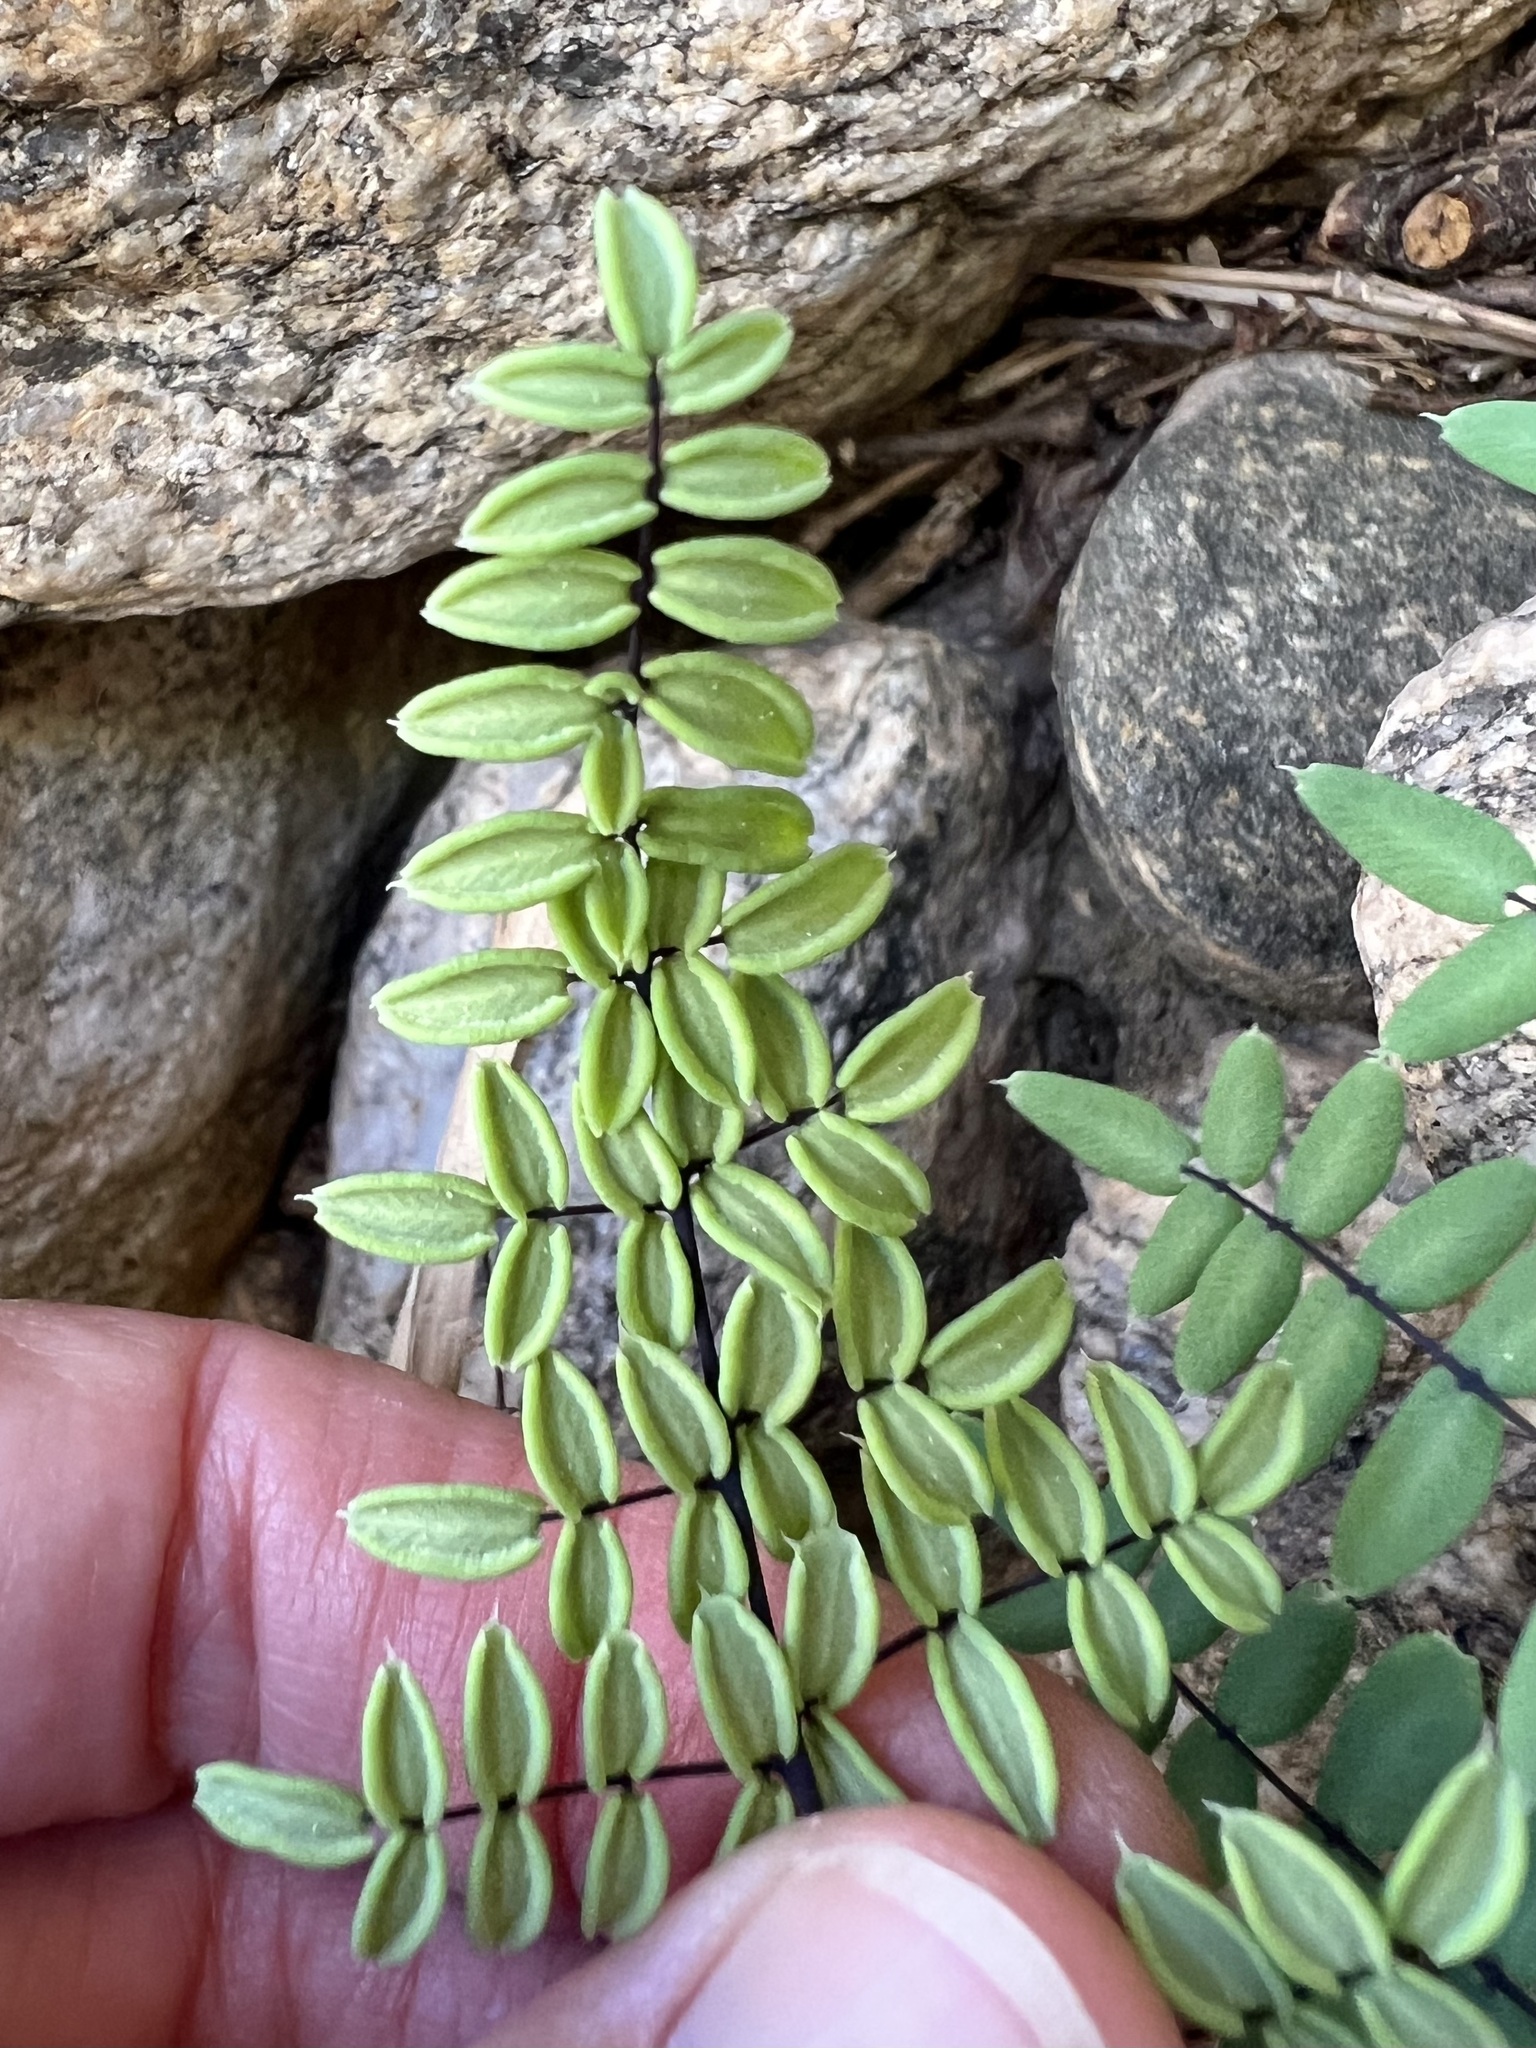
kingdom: Plantae
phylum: Tracheophyta
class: Polypodiopsida
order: Polypodiales
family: Pteridaceae
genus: Pellaea
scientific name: Pellaea truncata
